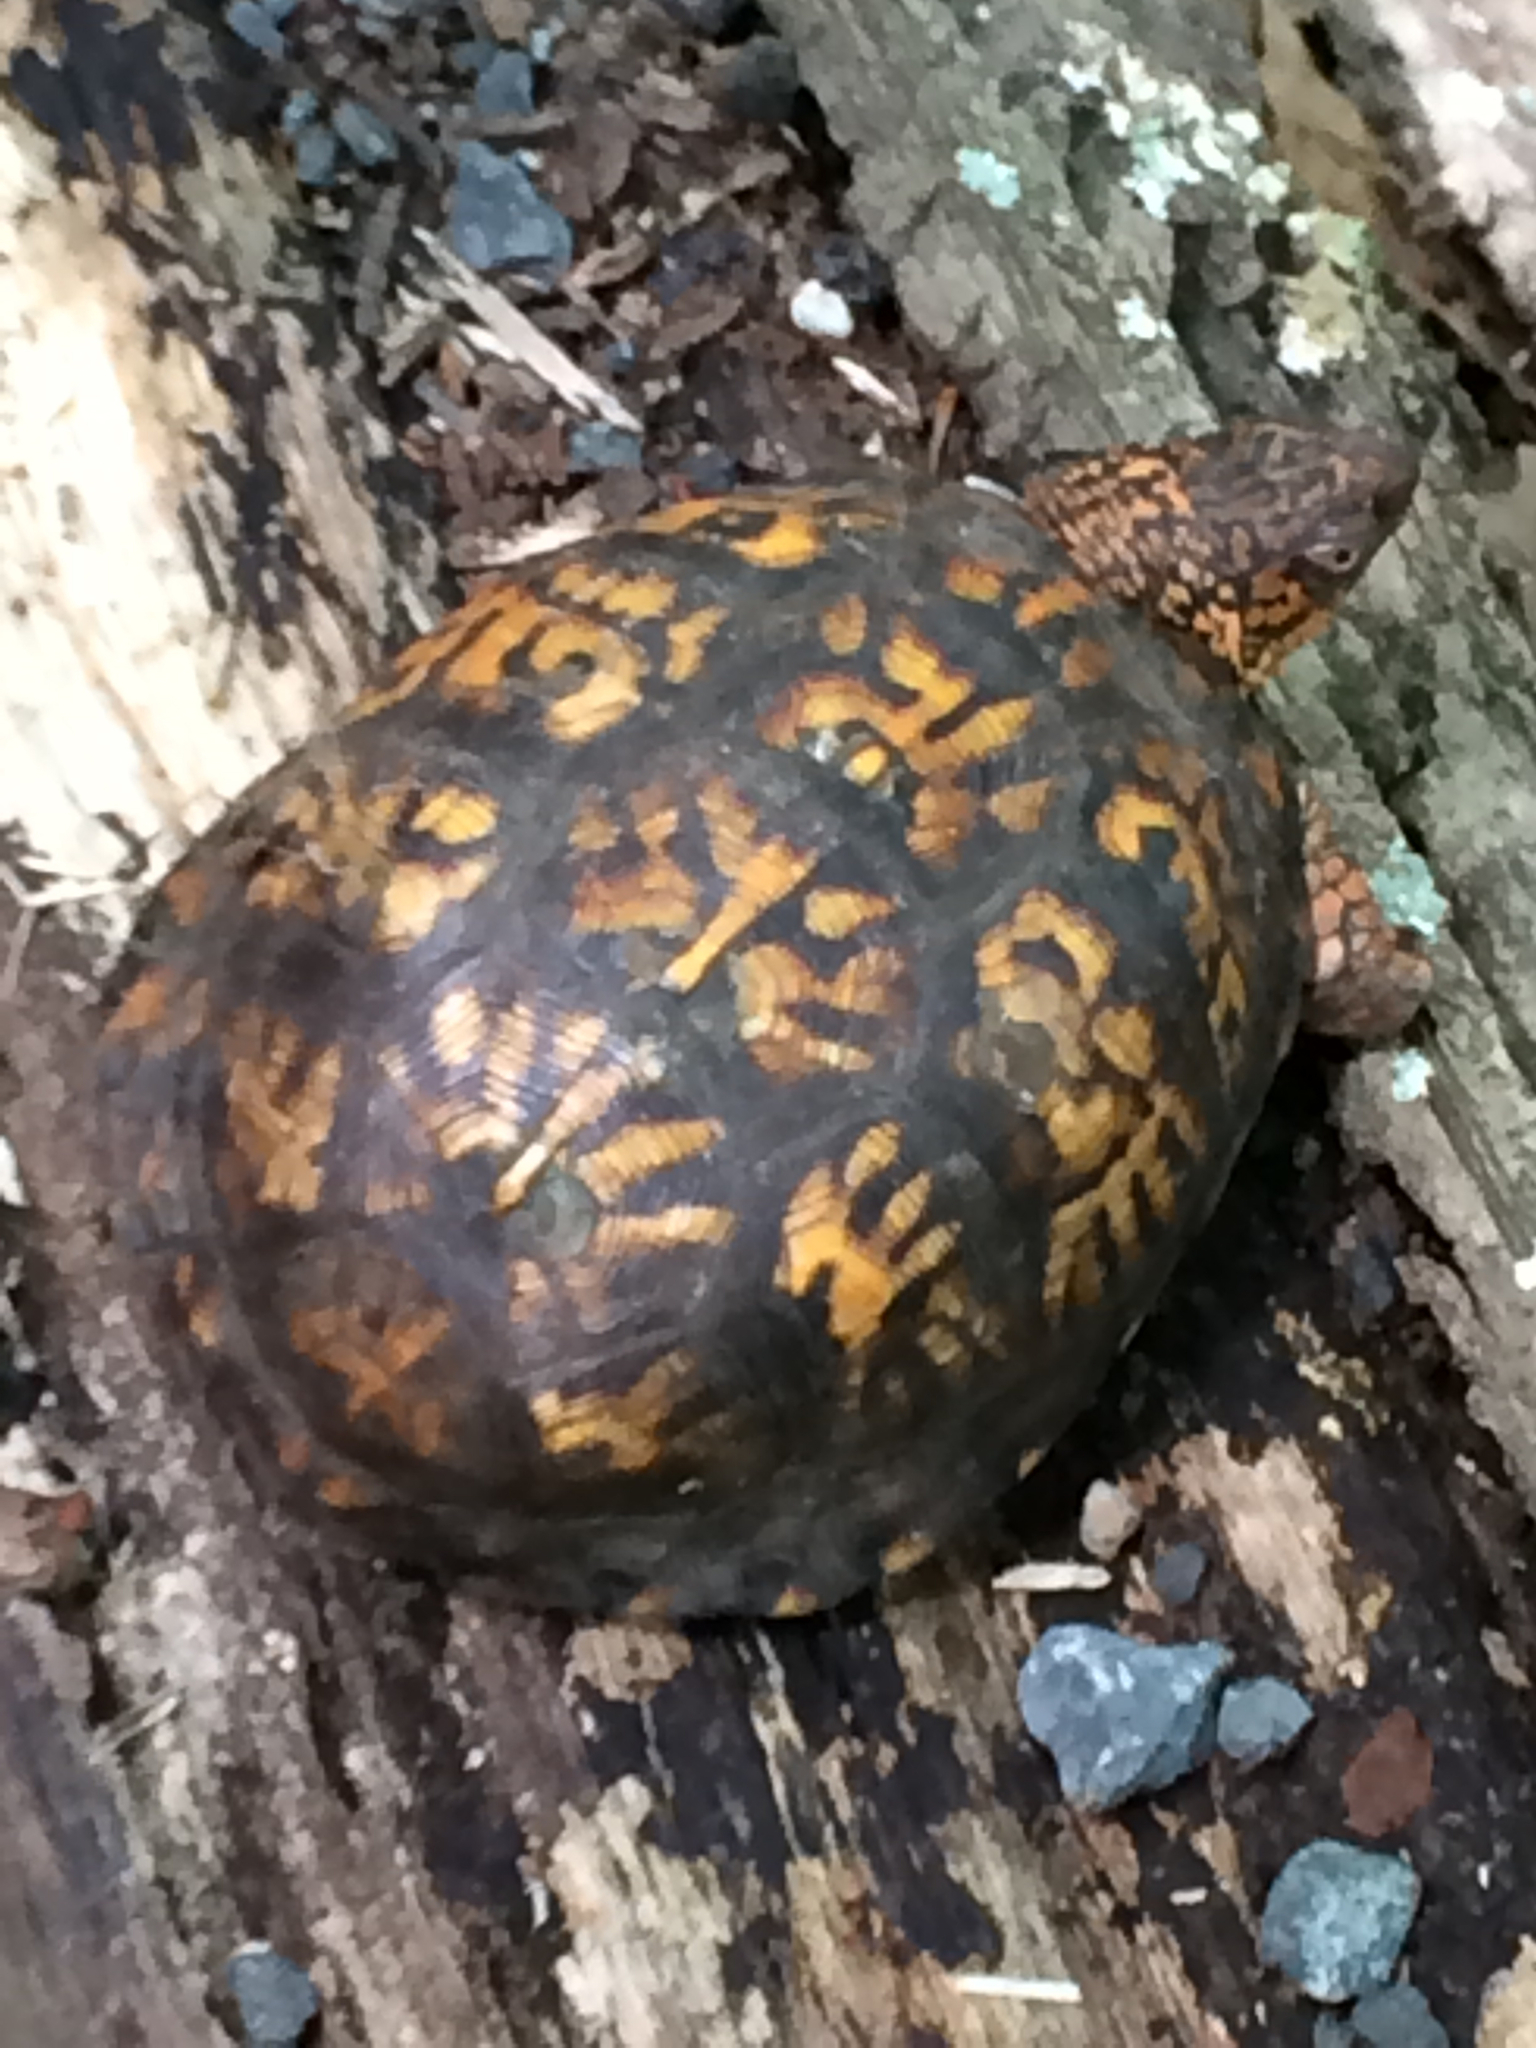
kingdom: Animalia
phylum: Chordata
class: Testudines
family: Emydidae
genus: Terrapene
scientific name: Terrapene carolina
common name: Common box turtle
